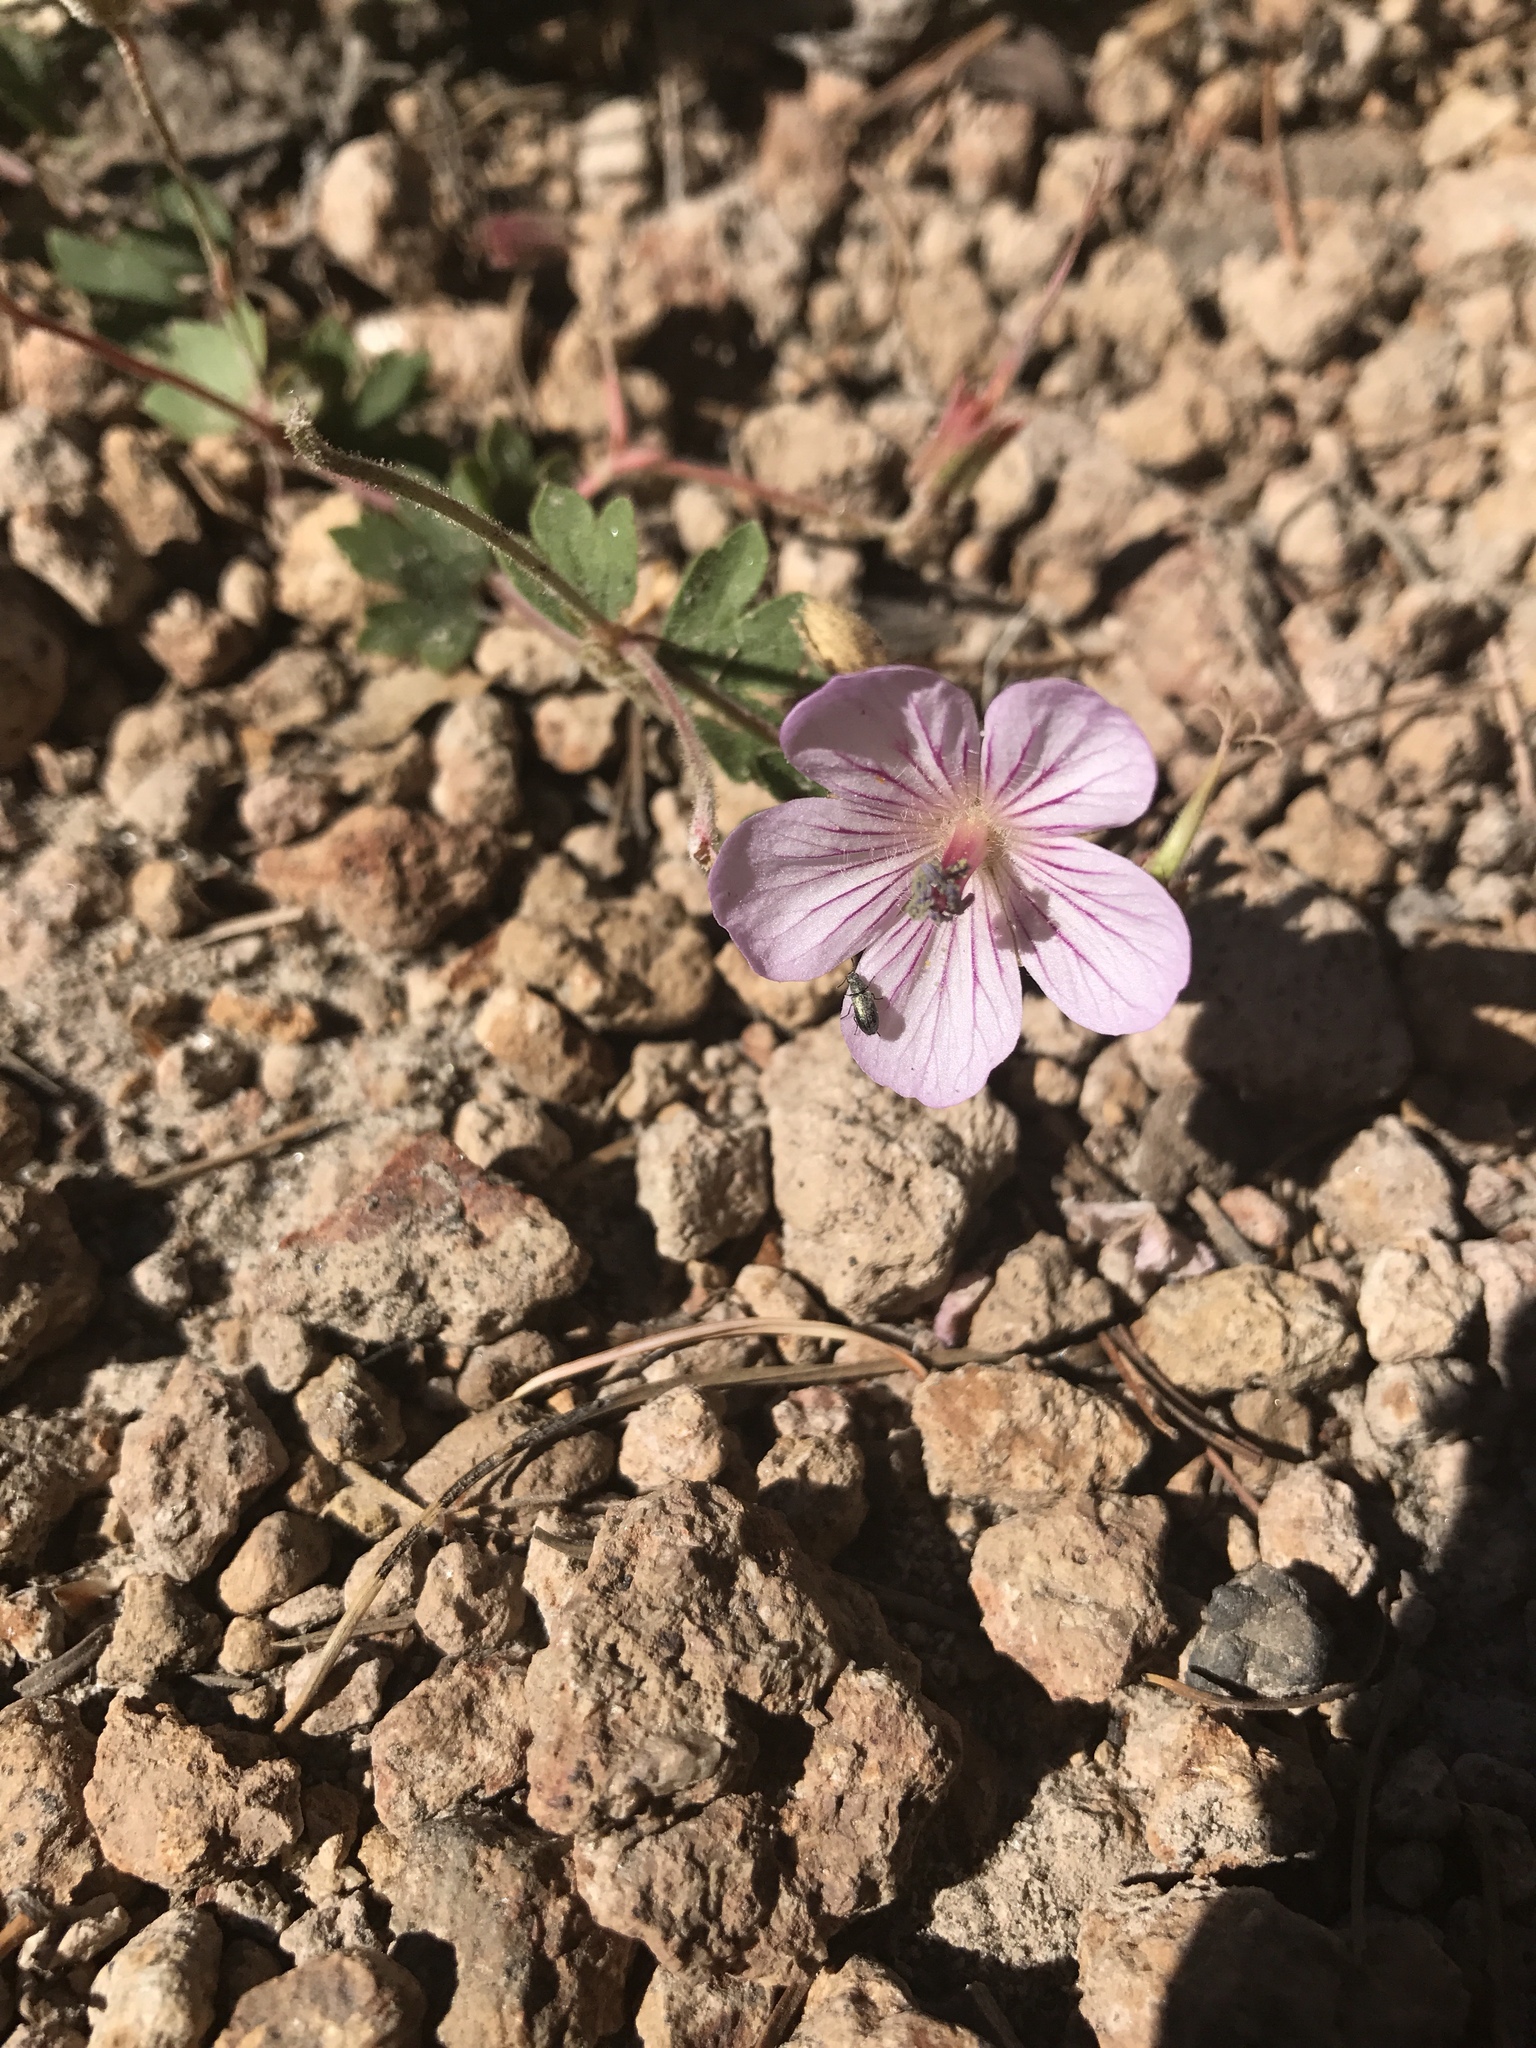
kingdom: Plantae
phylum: Tracheophyta
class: Magnoliopsida
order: Geraniales
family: Geraniaceae
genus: Geranium
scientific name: Geranium richardsonii
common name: Richardson's crane's-bill
